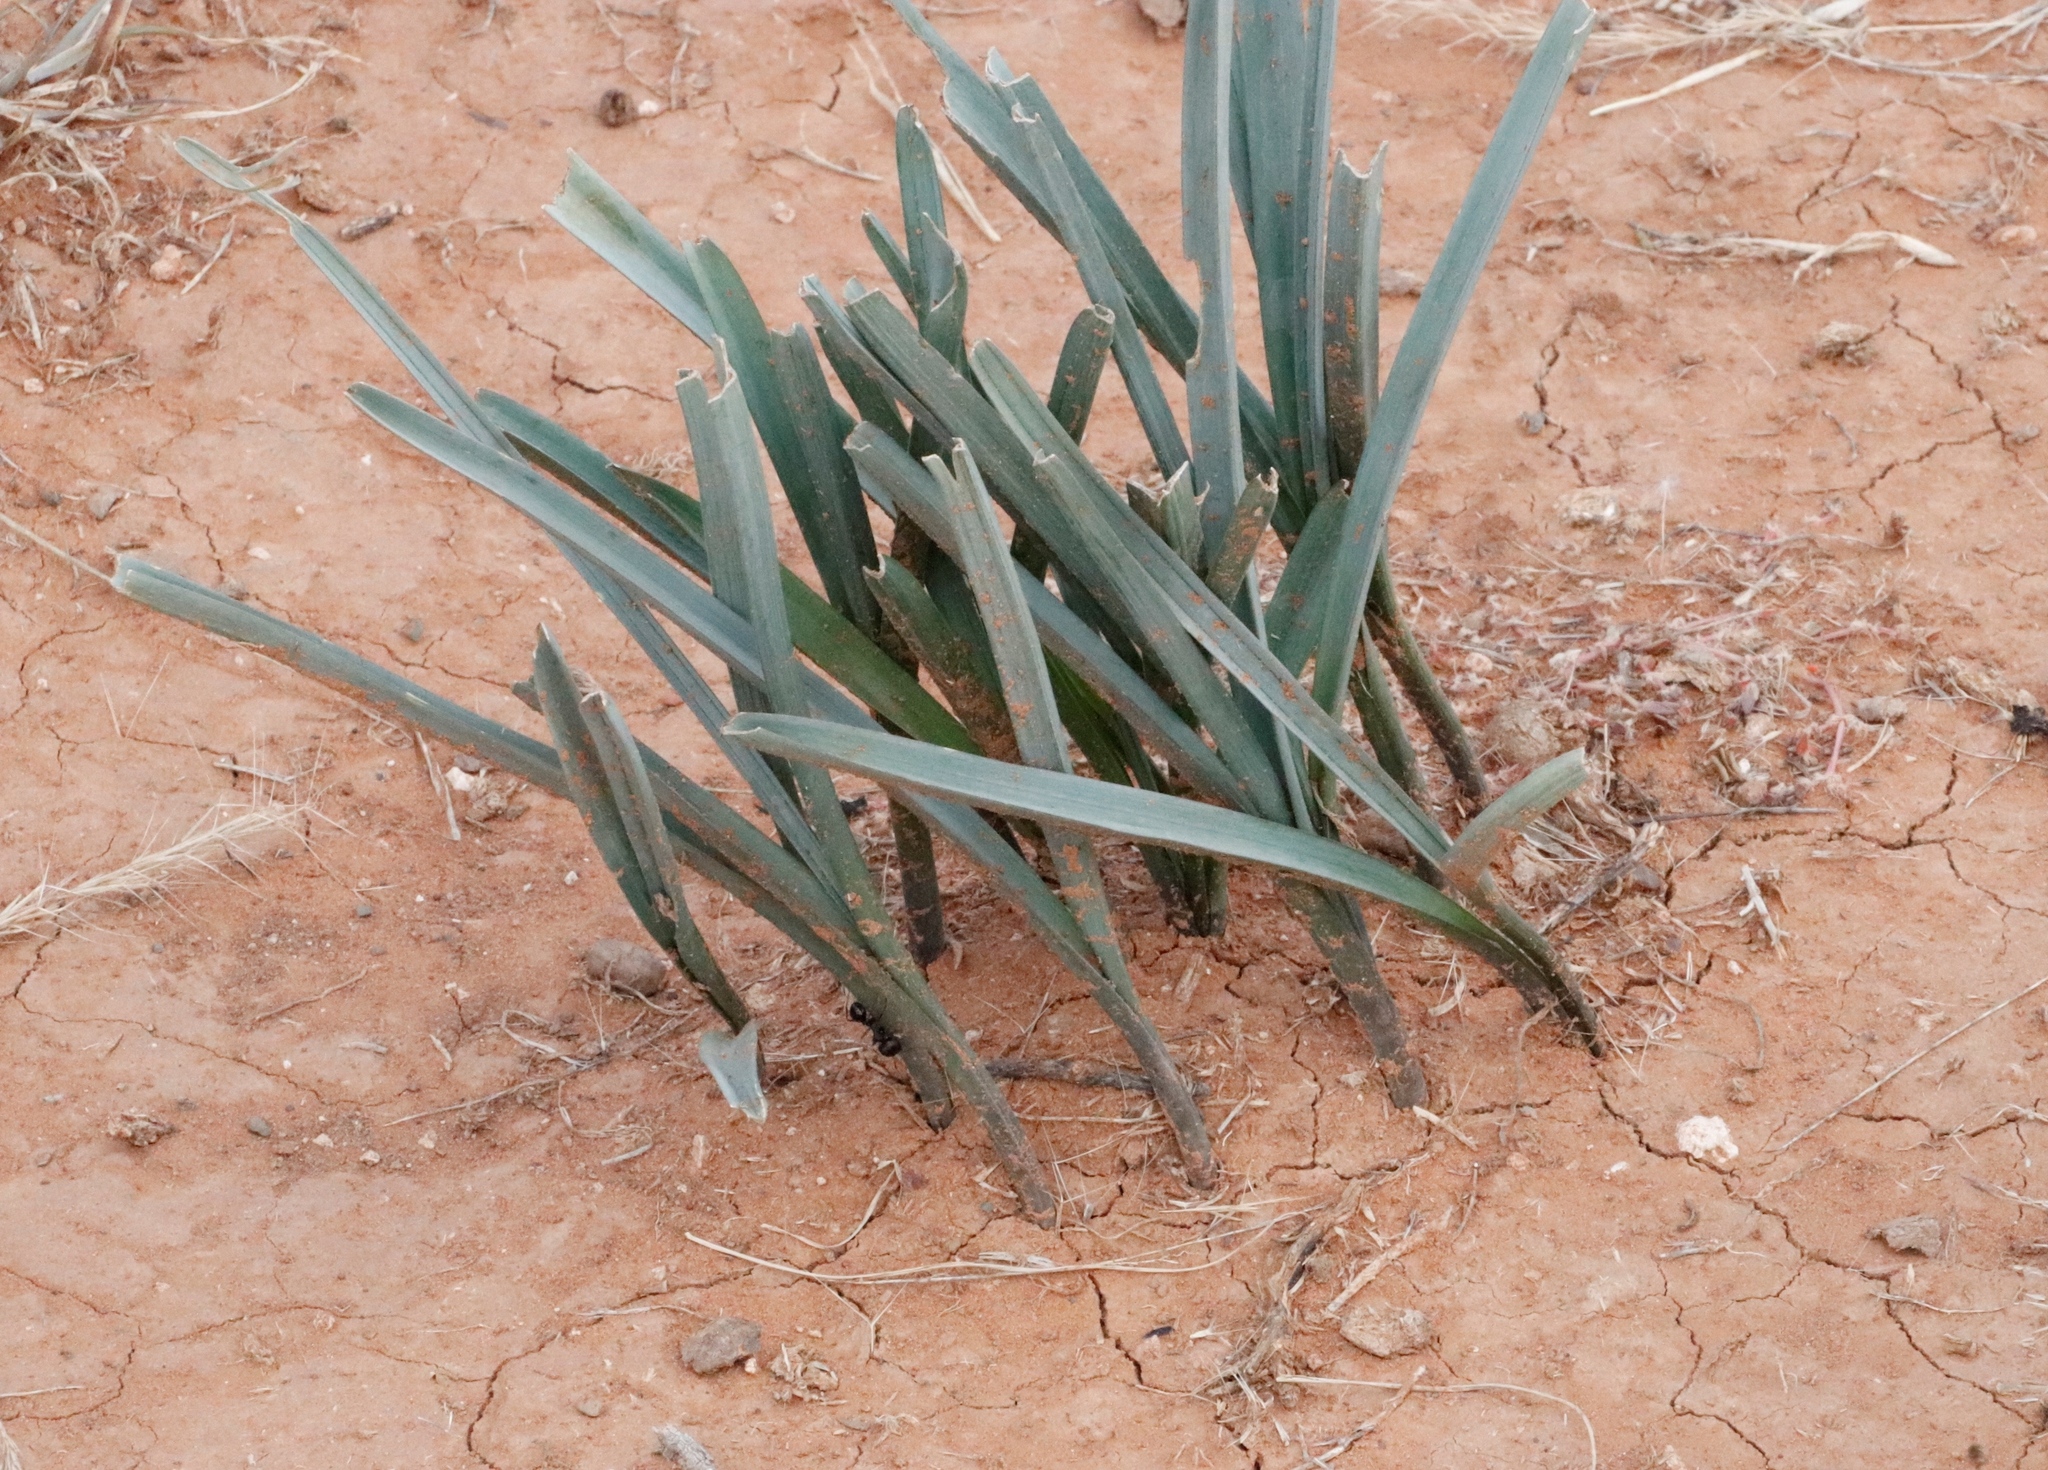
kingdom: Plantae
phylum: Tracheophyta
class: Liliopsida
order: Asparagales
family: Asparagaceae
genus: Drimia
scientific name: Drimia macrantha
